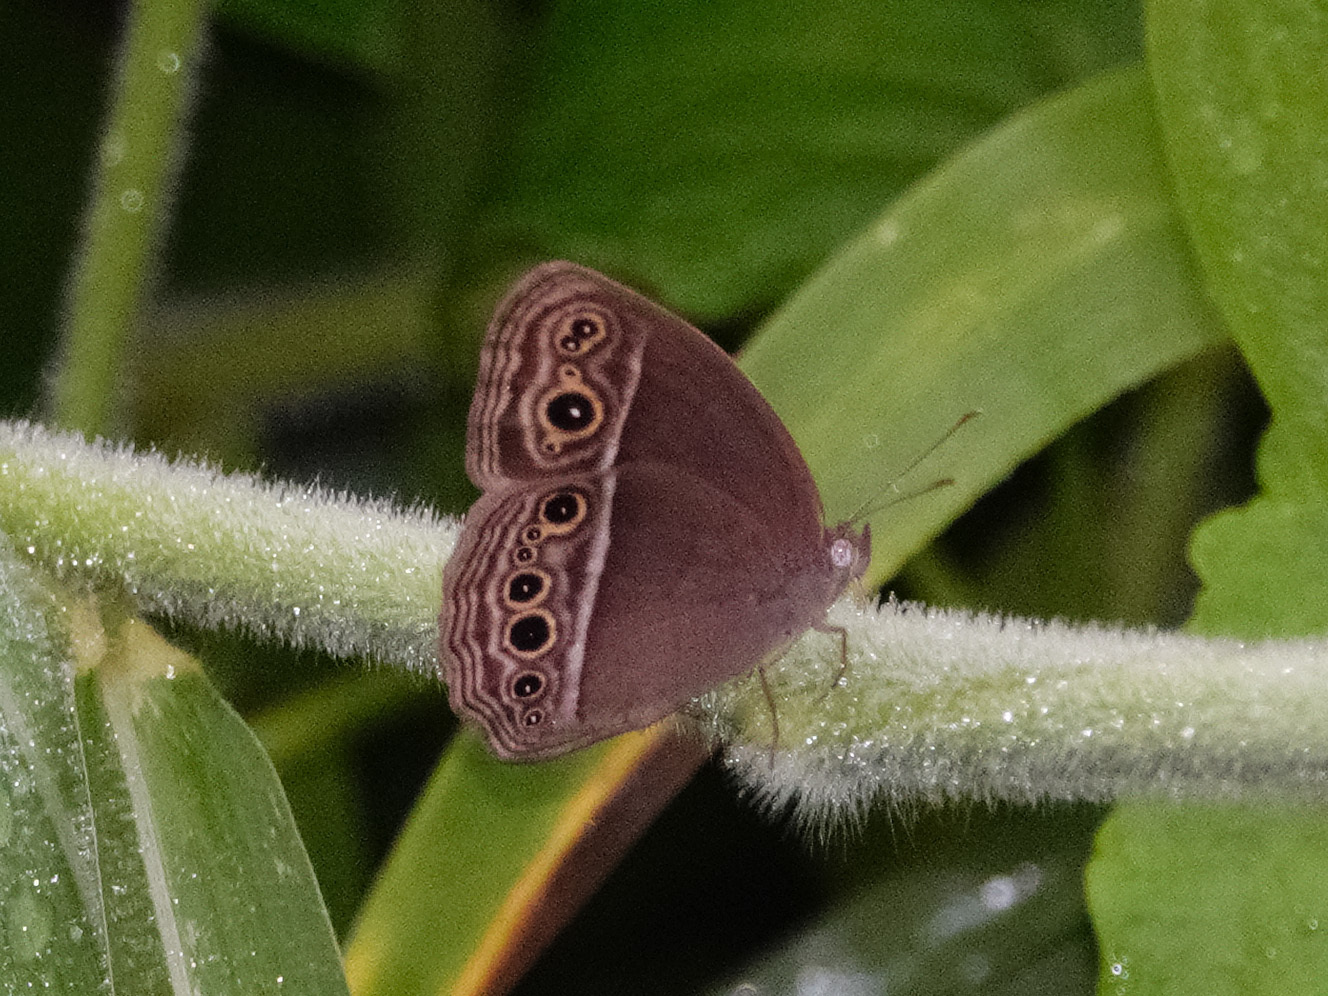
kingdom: Animalia
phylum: Arthropoda
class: Insecta
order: Lepidoptera
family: Nymphalidae
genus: Mycalesis
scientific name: Mycalesis mineus
